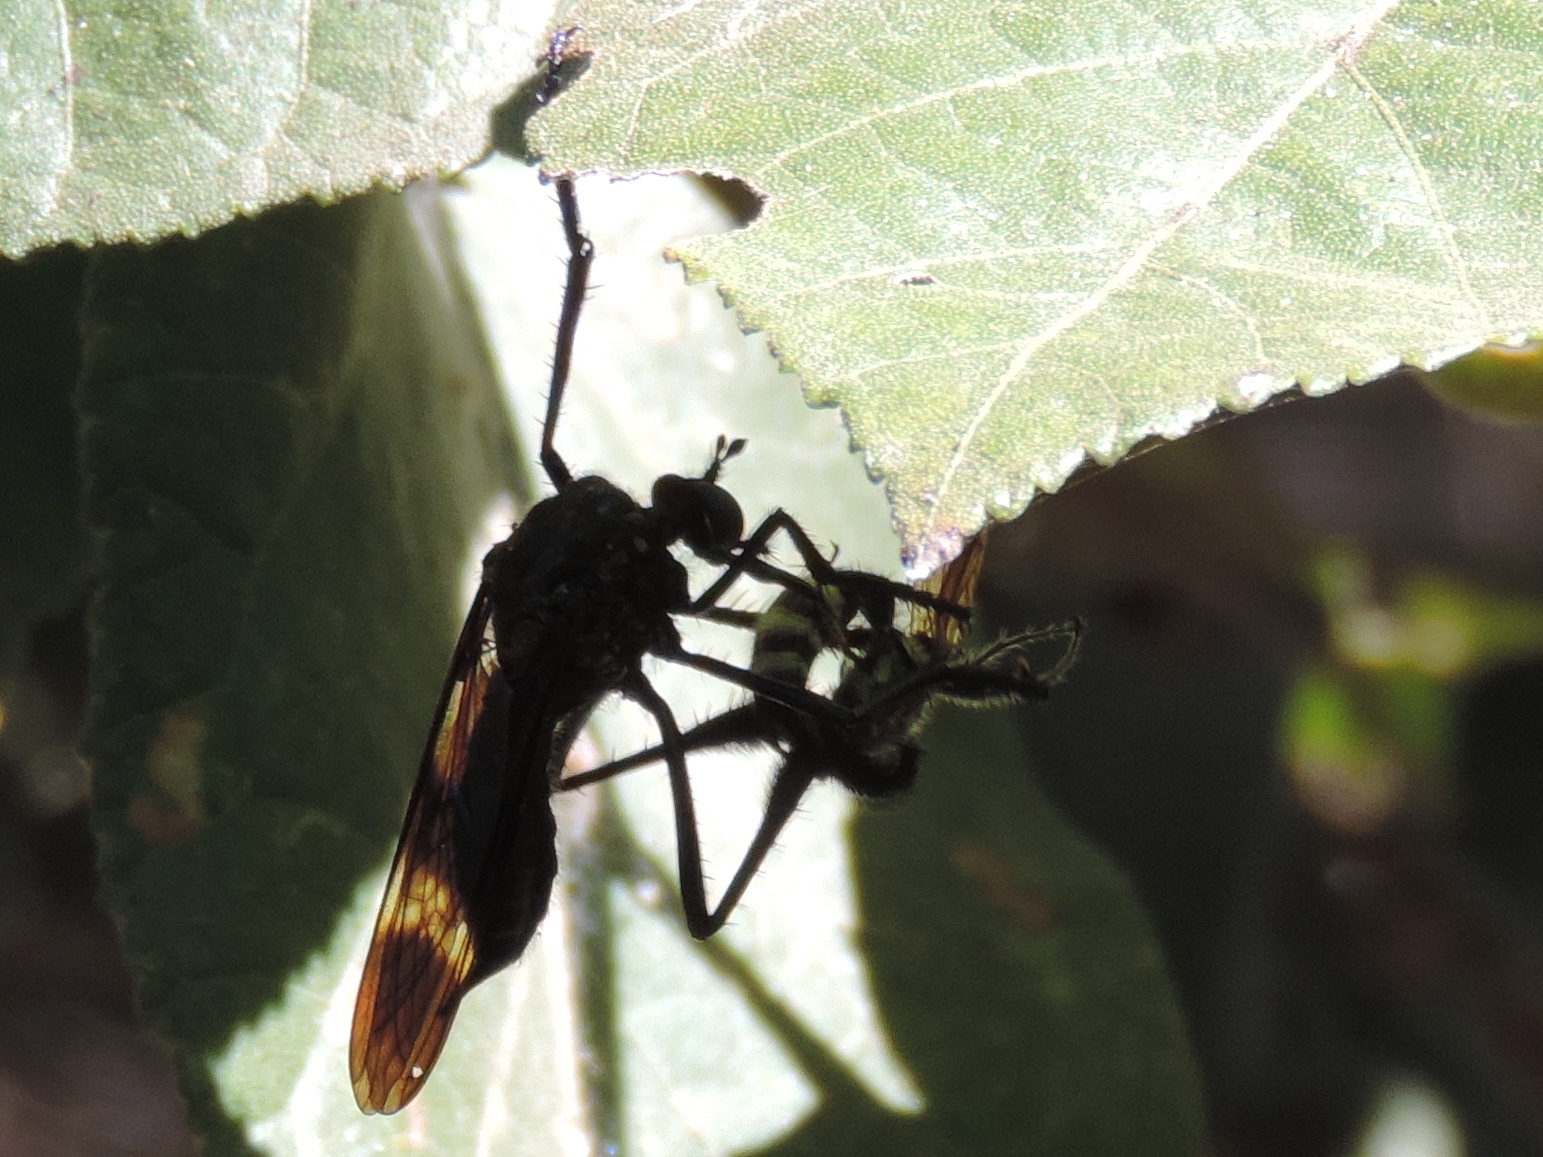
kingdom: Animalia
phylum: Arthropoda
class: Insecta
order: Hymenoptera
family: Scoliidae
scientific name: Scoliidae
